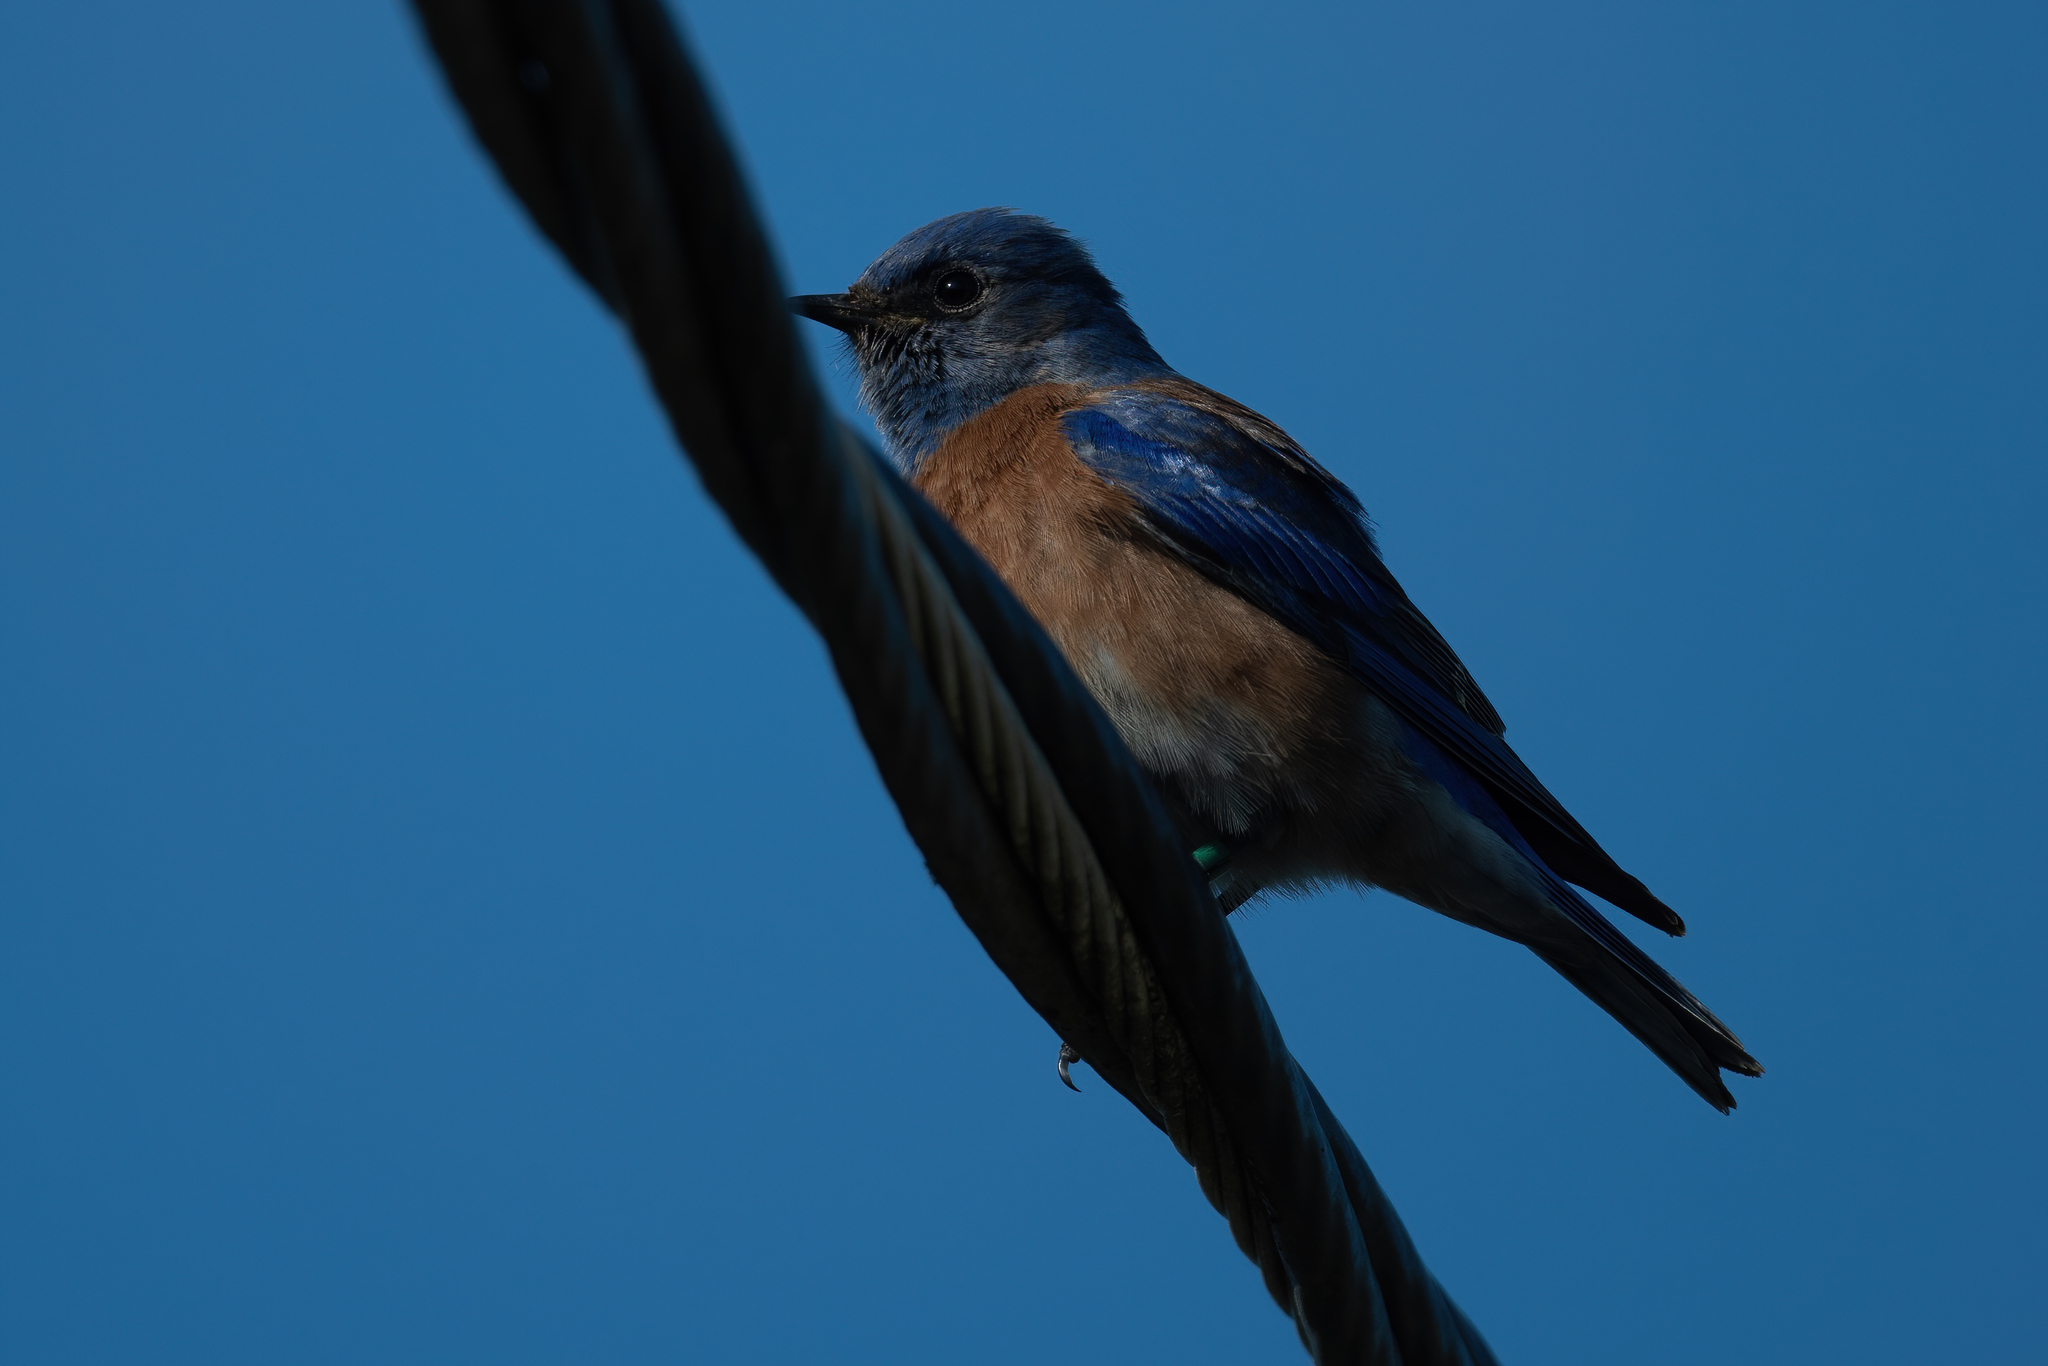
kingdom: Animalia
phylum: Chordata
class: Aves
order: Passeriformes
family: Turdidae
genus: Sialia
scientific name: Sialia mexicana
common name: Western bluebird
